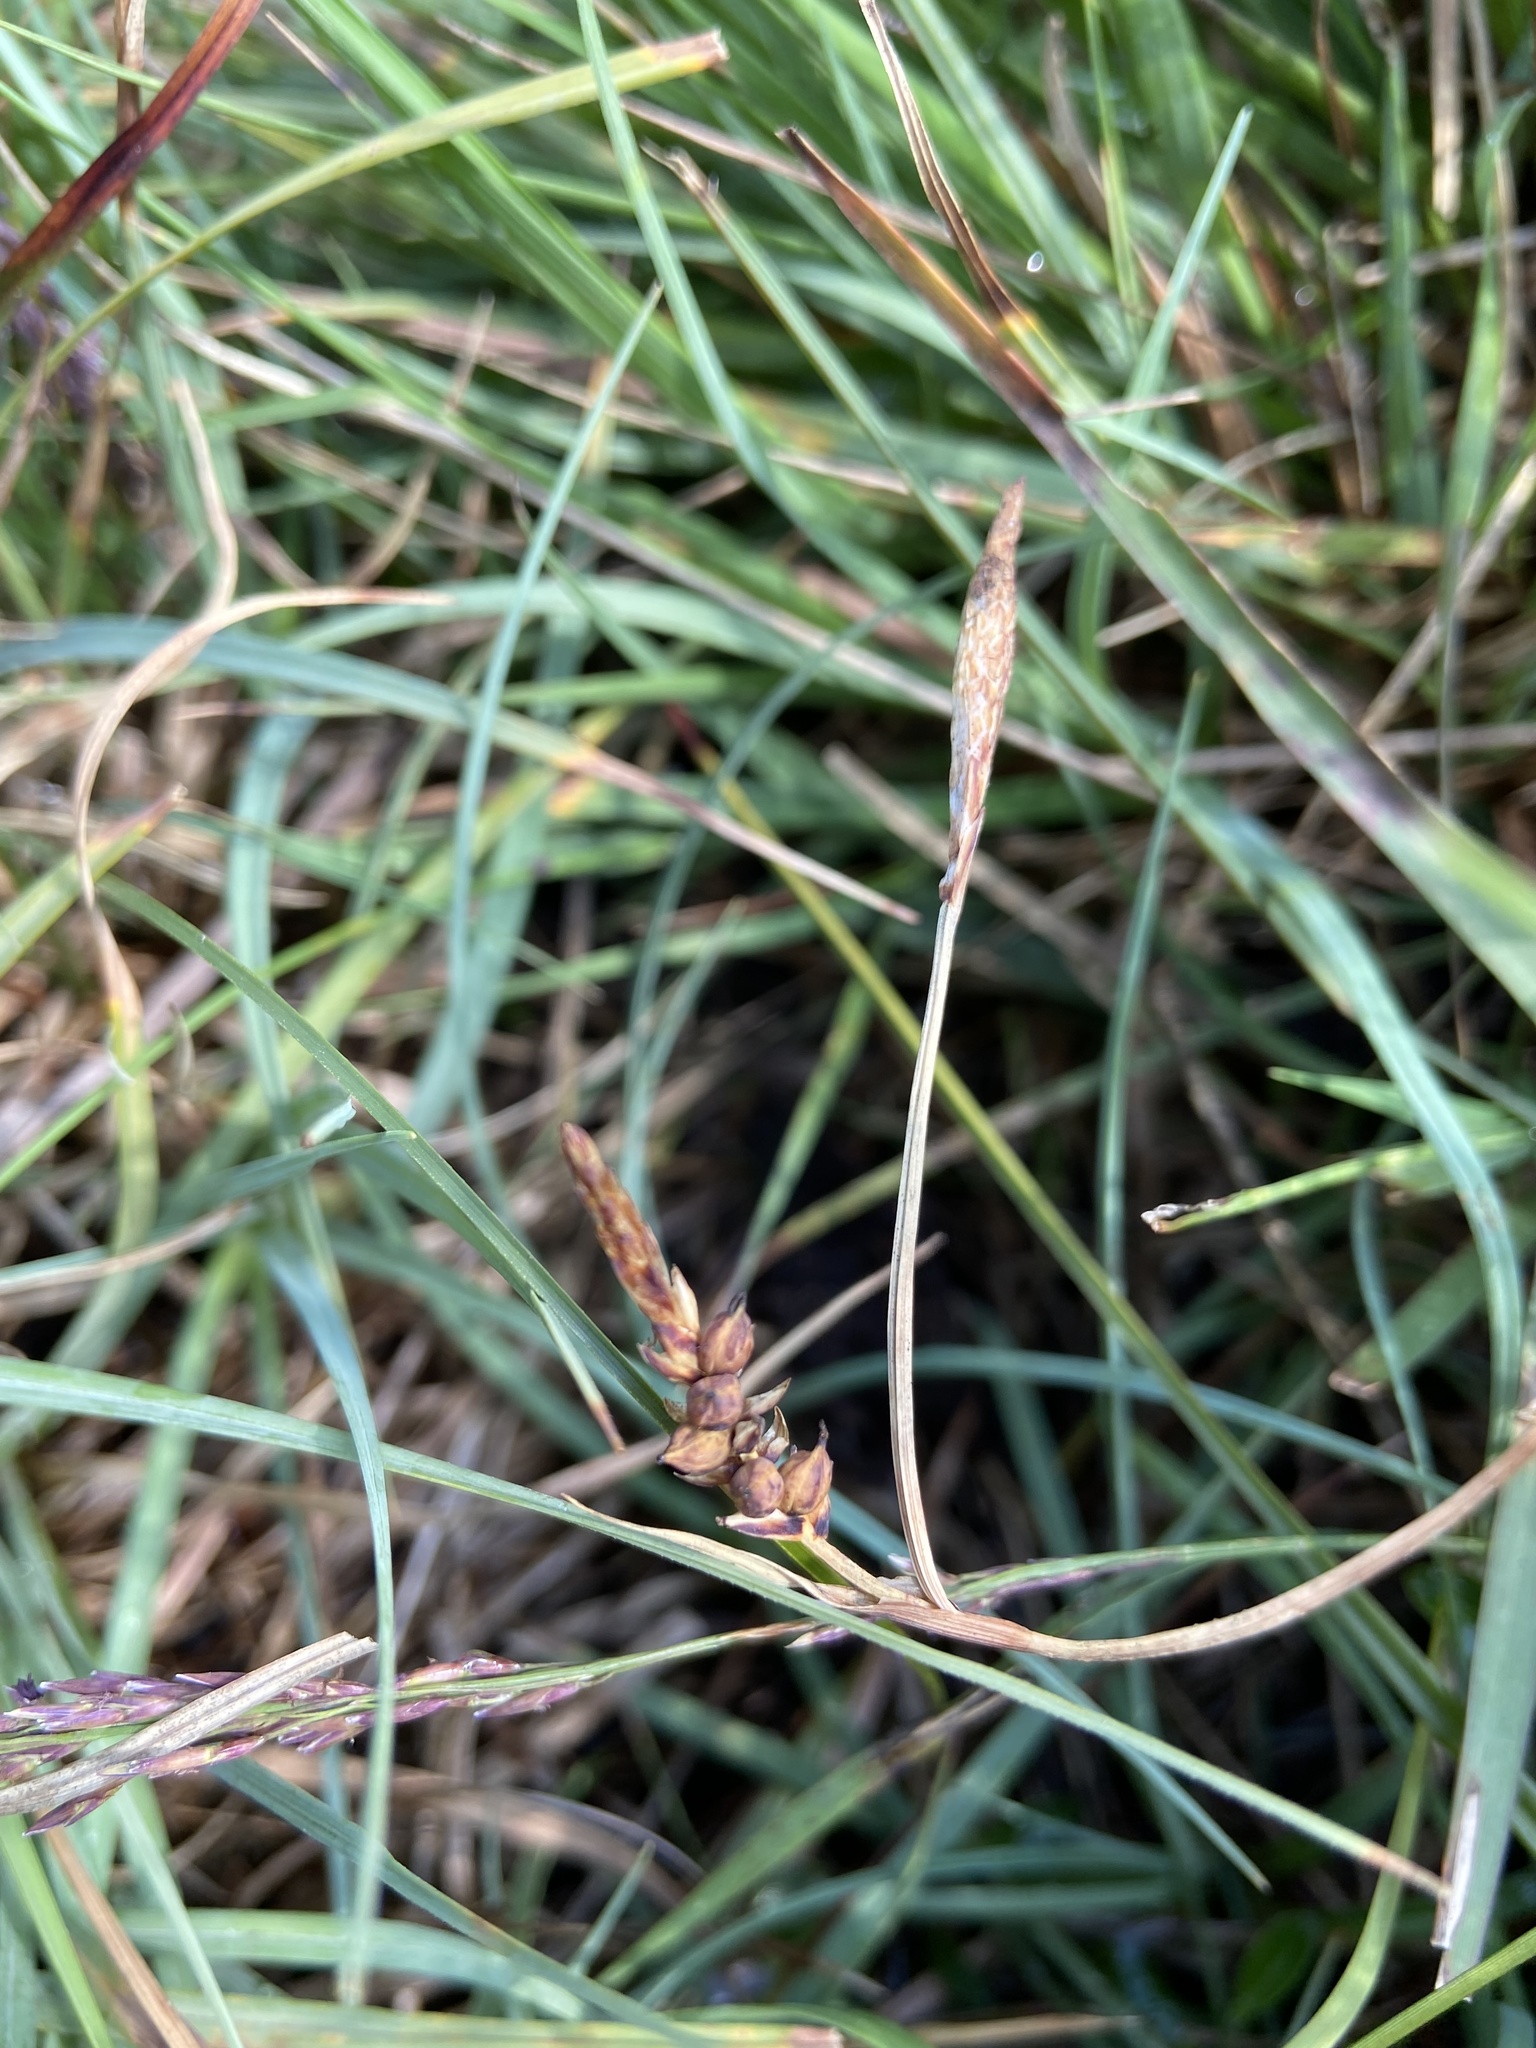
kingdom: Plantae
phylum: Tracheophyta
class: Liliopsida
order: Poales
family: Cyperaceae
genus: Carex
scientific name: Carex panicea
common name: Carnation sedge
